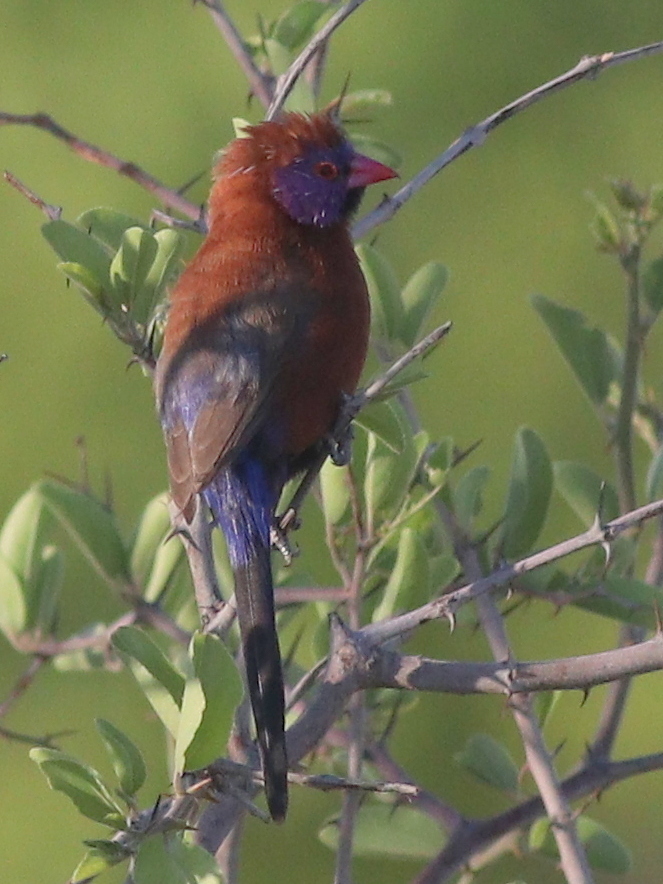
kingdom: Animalia
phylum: Chordata
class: Aves
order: Passeriformes
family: Estrildidae
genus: Uraeginthus
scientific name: Uraeginthus granatinus
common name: Violet-eared waxbill
